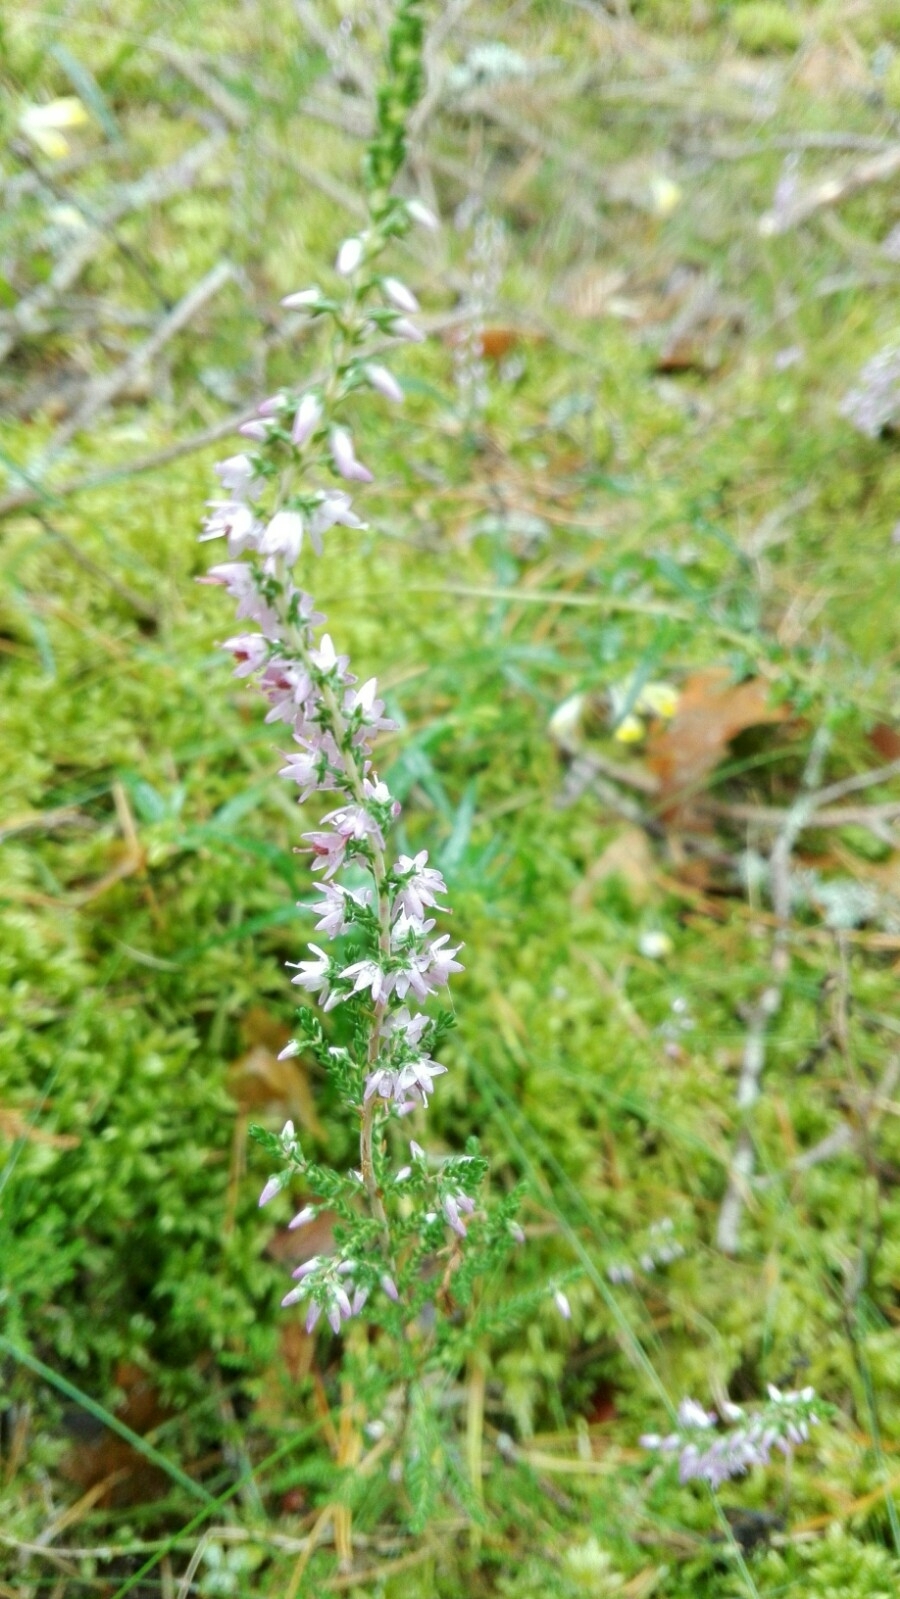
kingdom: Plantae
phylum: Tracheophyta
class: Magnoliopsida
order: Ericales
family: Ericaceae
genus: Calluna
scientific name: Calluna vulgaris
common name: Heather
